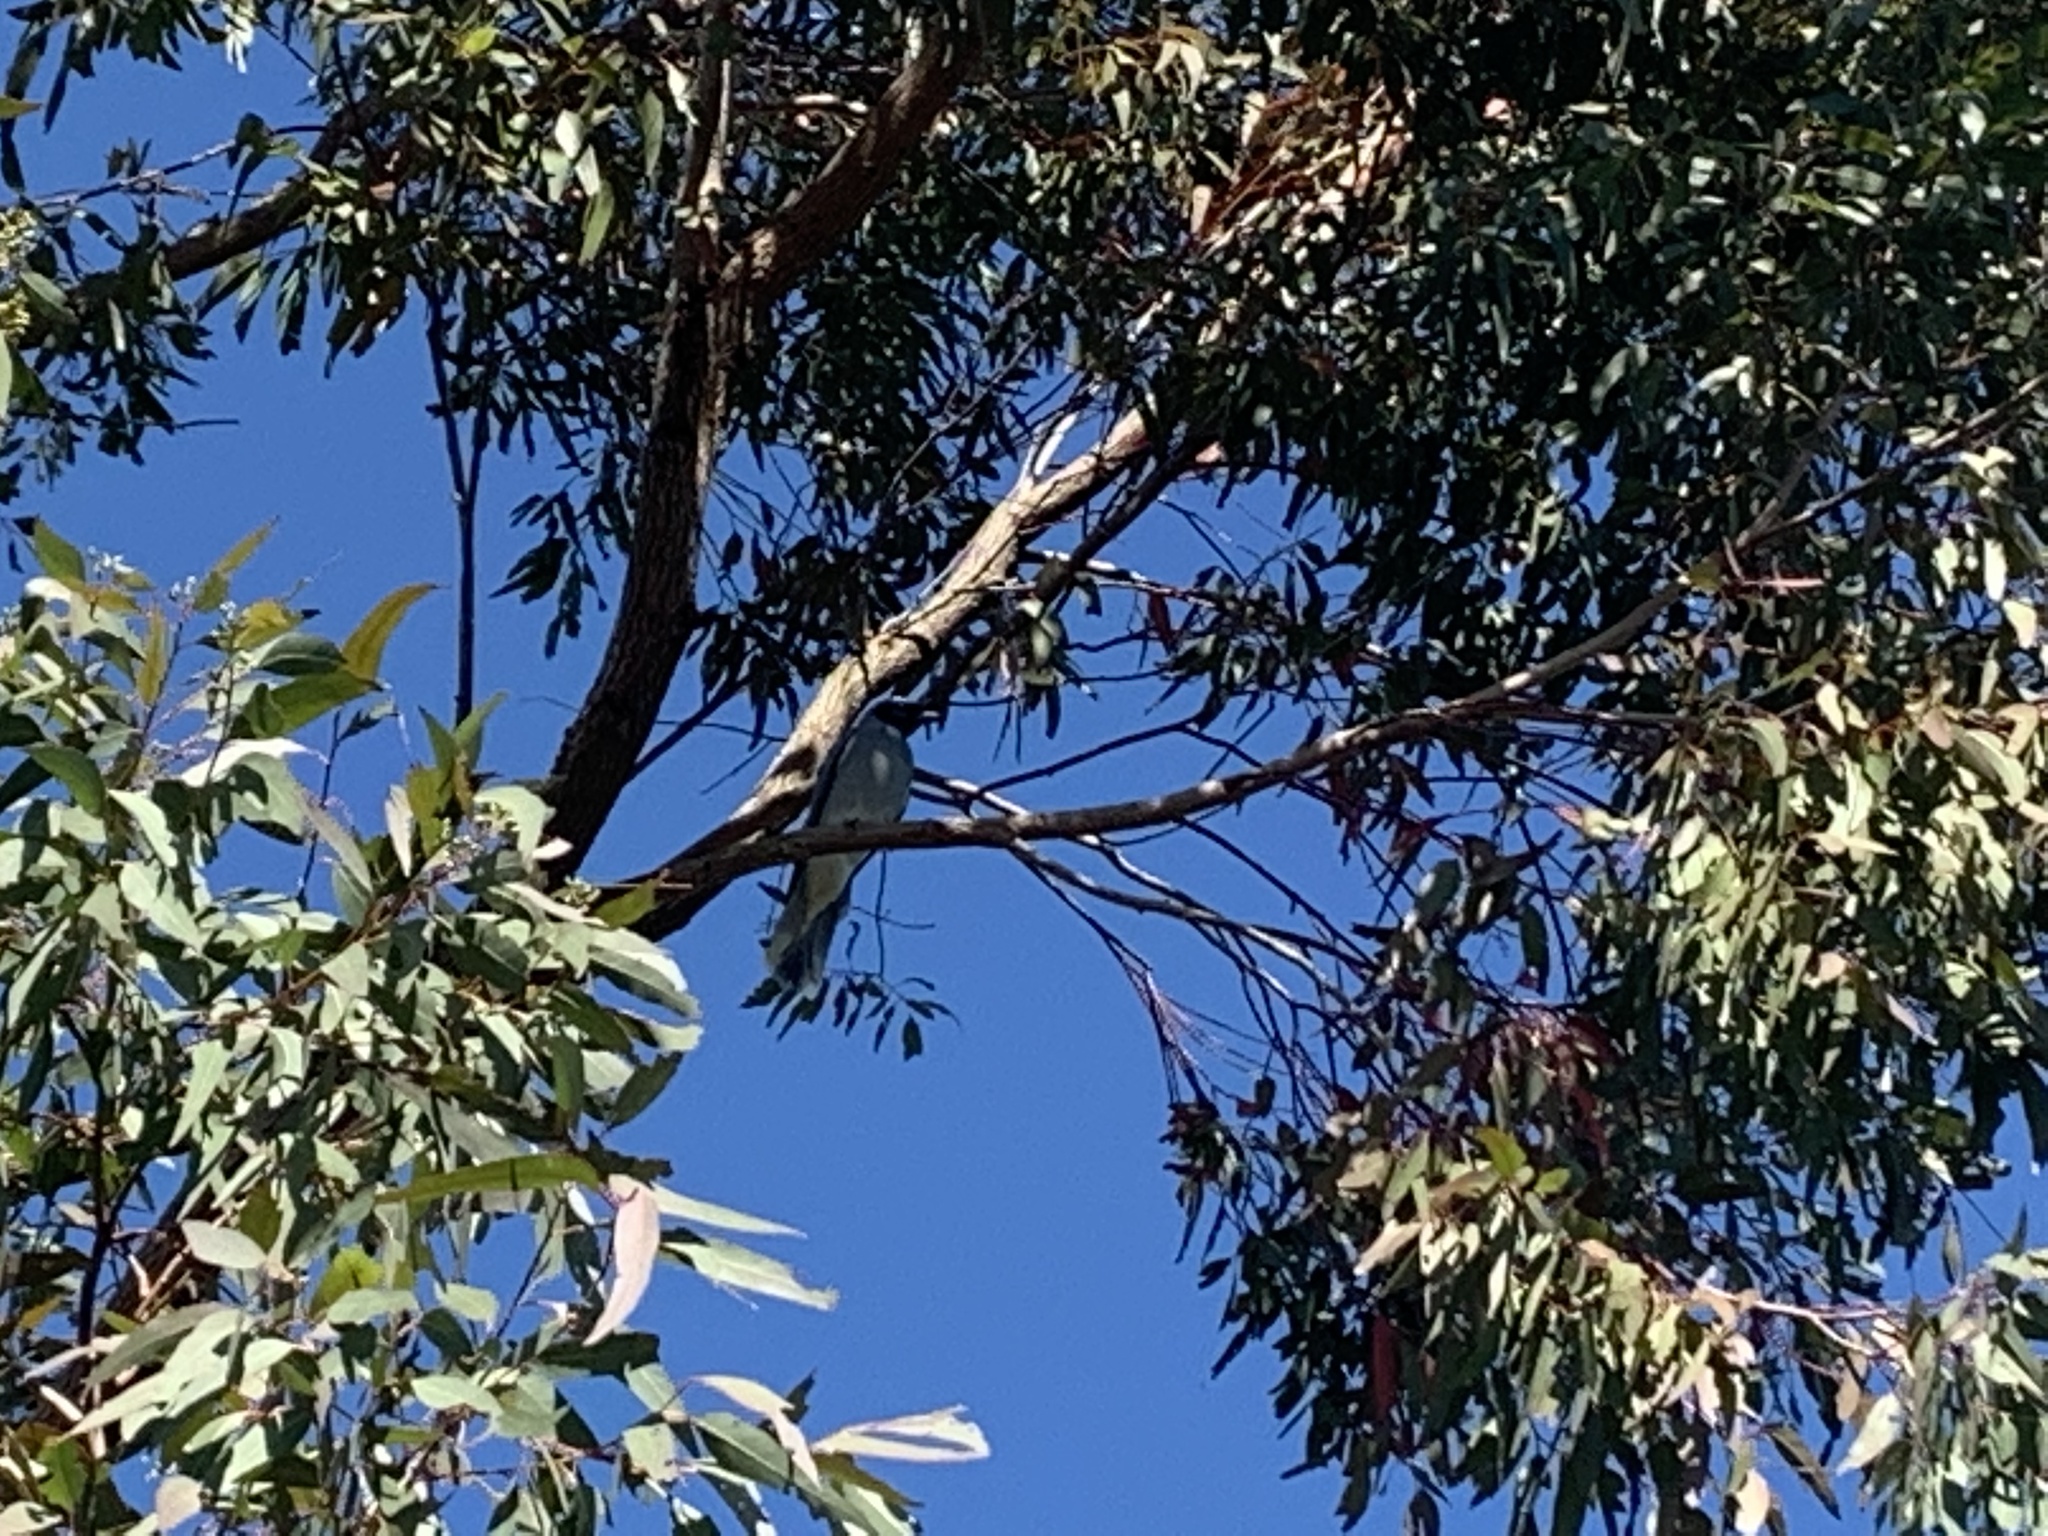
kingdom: Animalia
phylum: Chordata
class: Aves
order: Passeriformes
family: Campephagidae
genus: Coracina
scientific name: Coracina novaehollandiae
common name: Black-faced cuckooshrike
